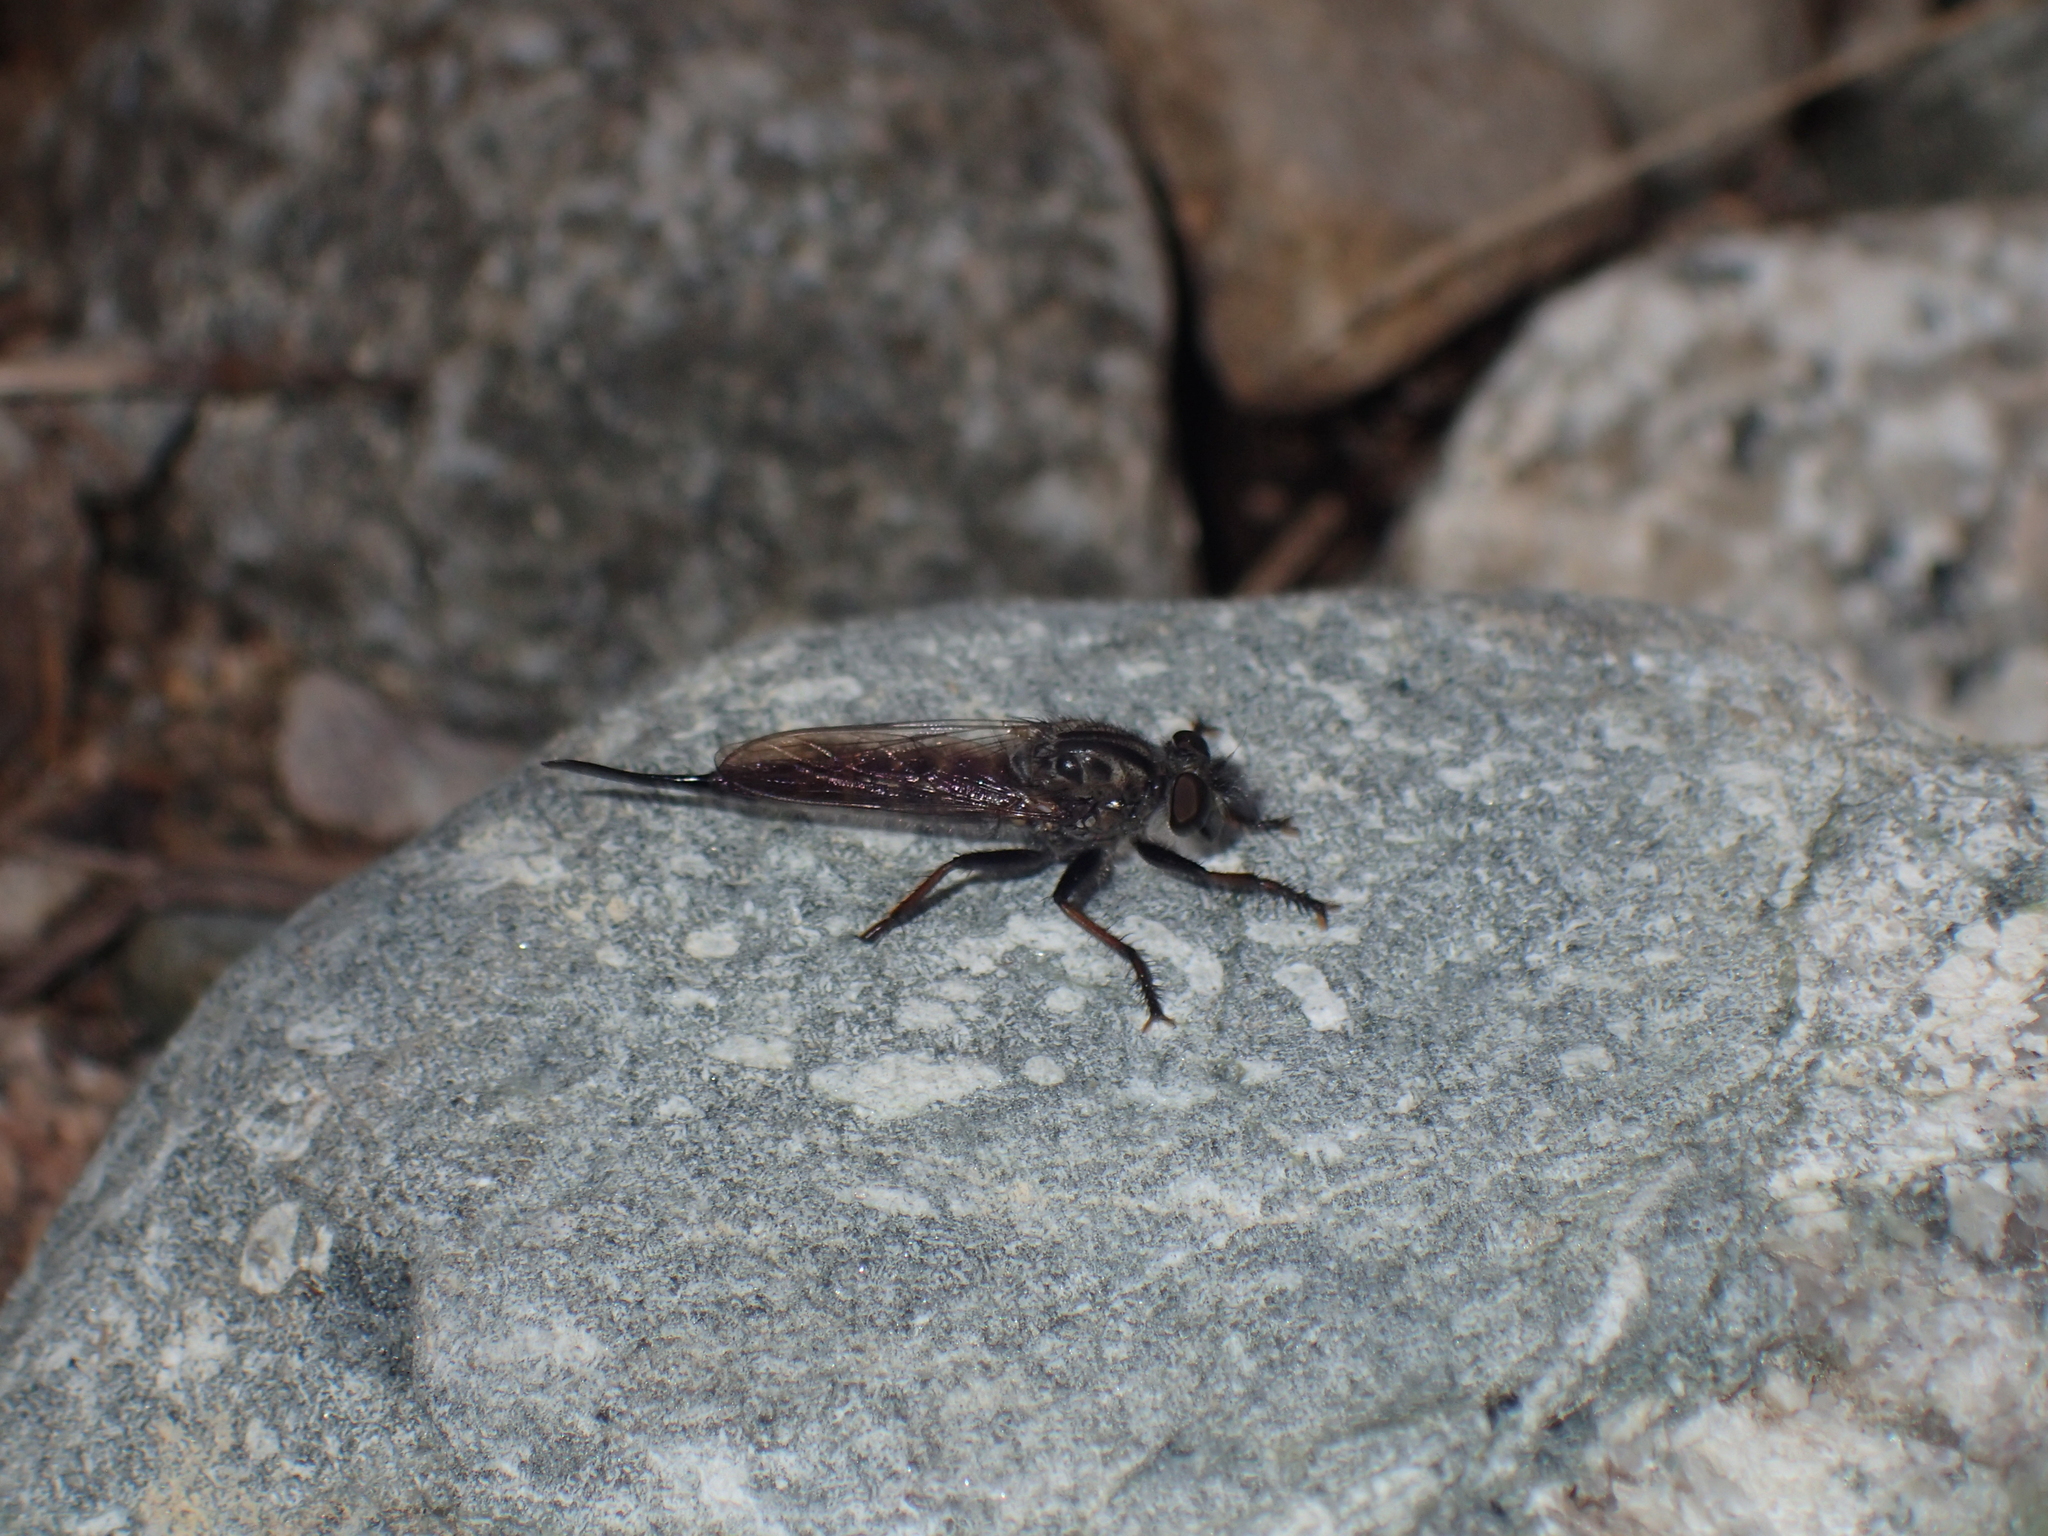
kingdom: Animalia
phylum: Arthropoda
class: Insecta
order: Diptera
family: Asilidae
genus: Efferia
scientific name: Efferia aestuans
